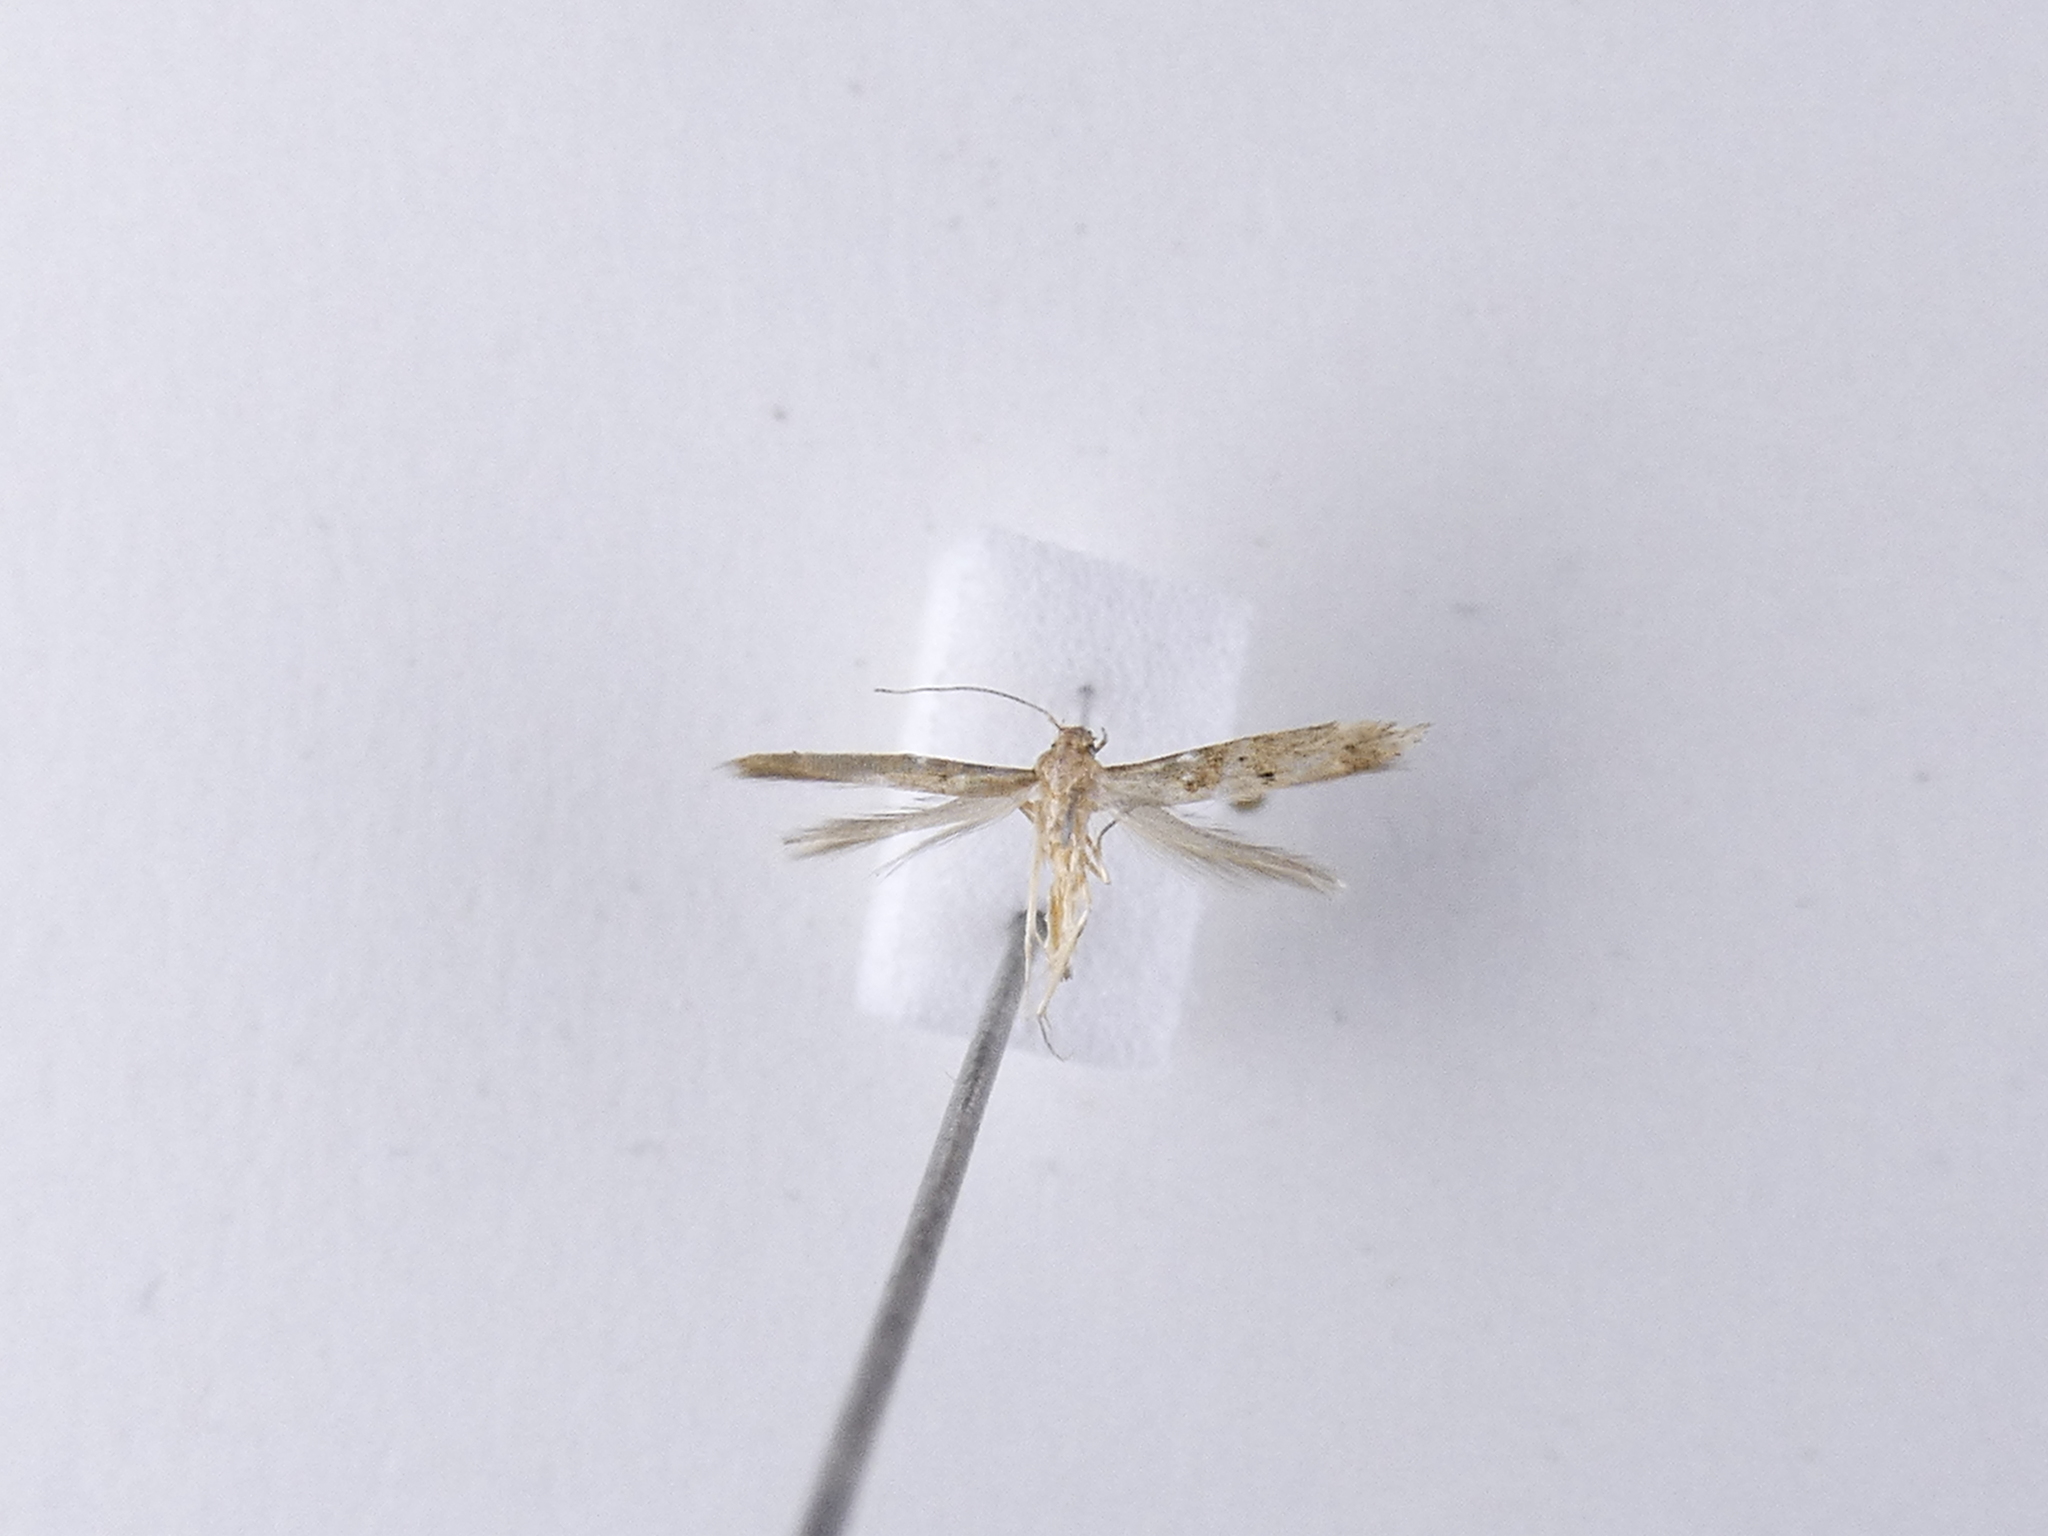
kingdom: Animalia
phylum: Arthropoda
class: Insecta
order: Lepidoptera
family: Elachistidae
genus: Microcolona
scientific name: Microcolona limodes
